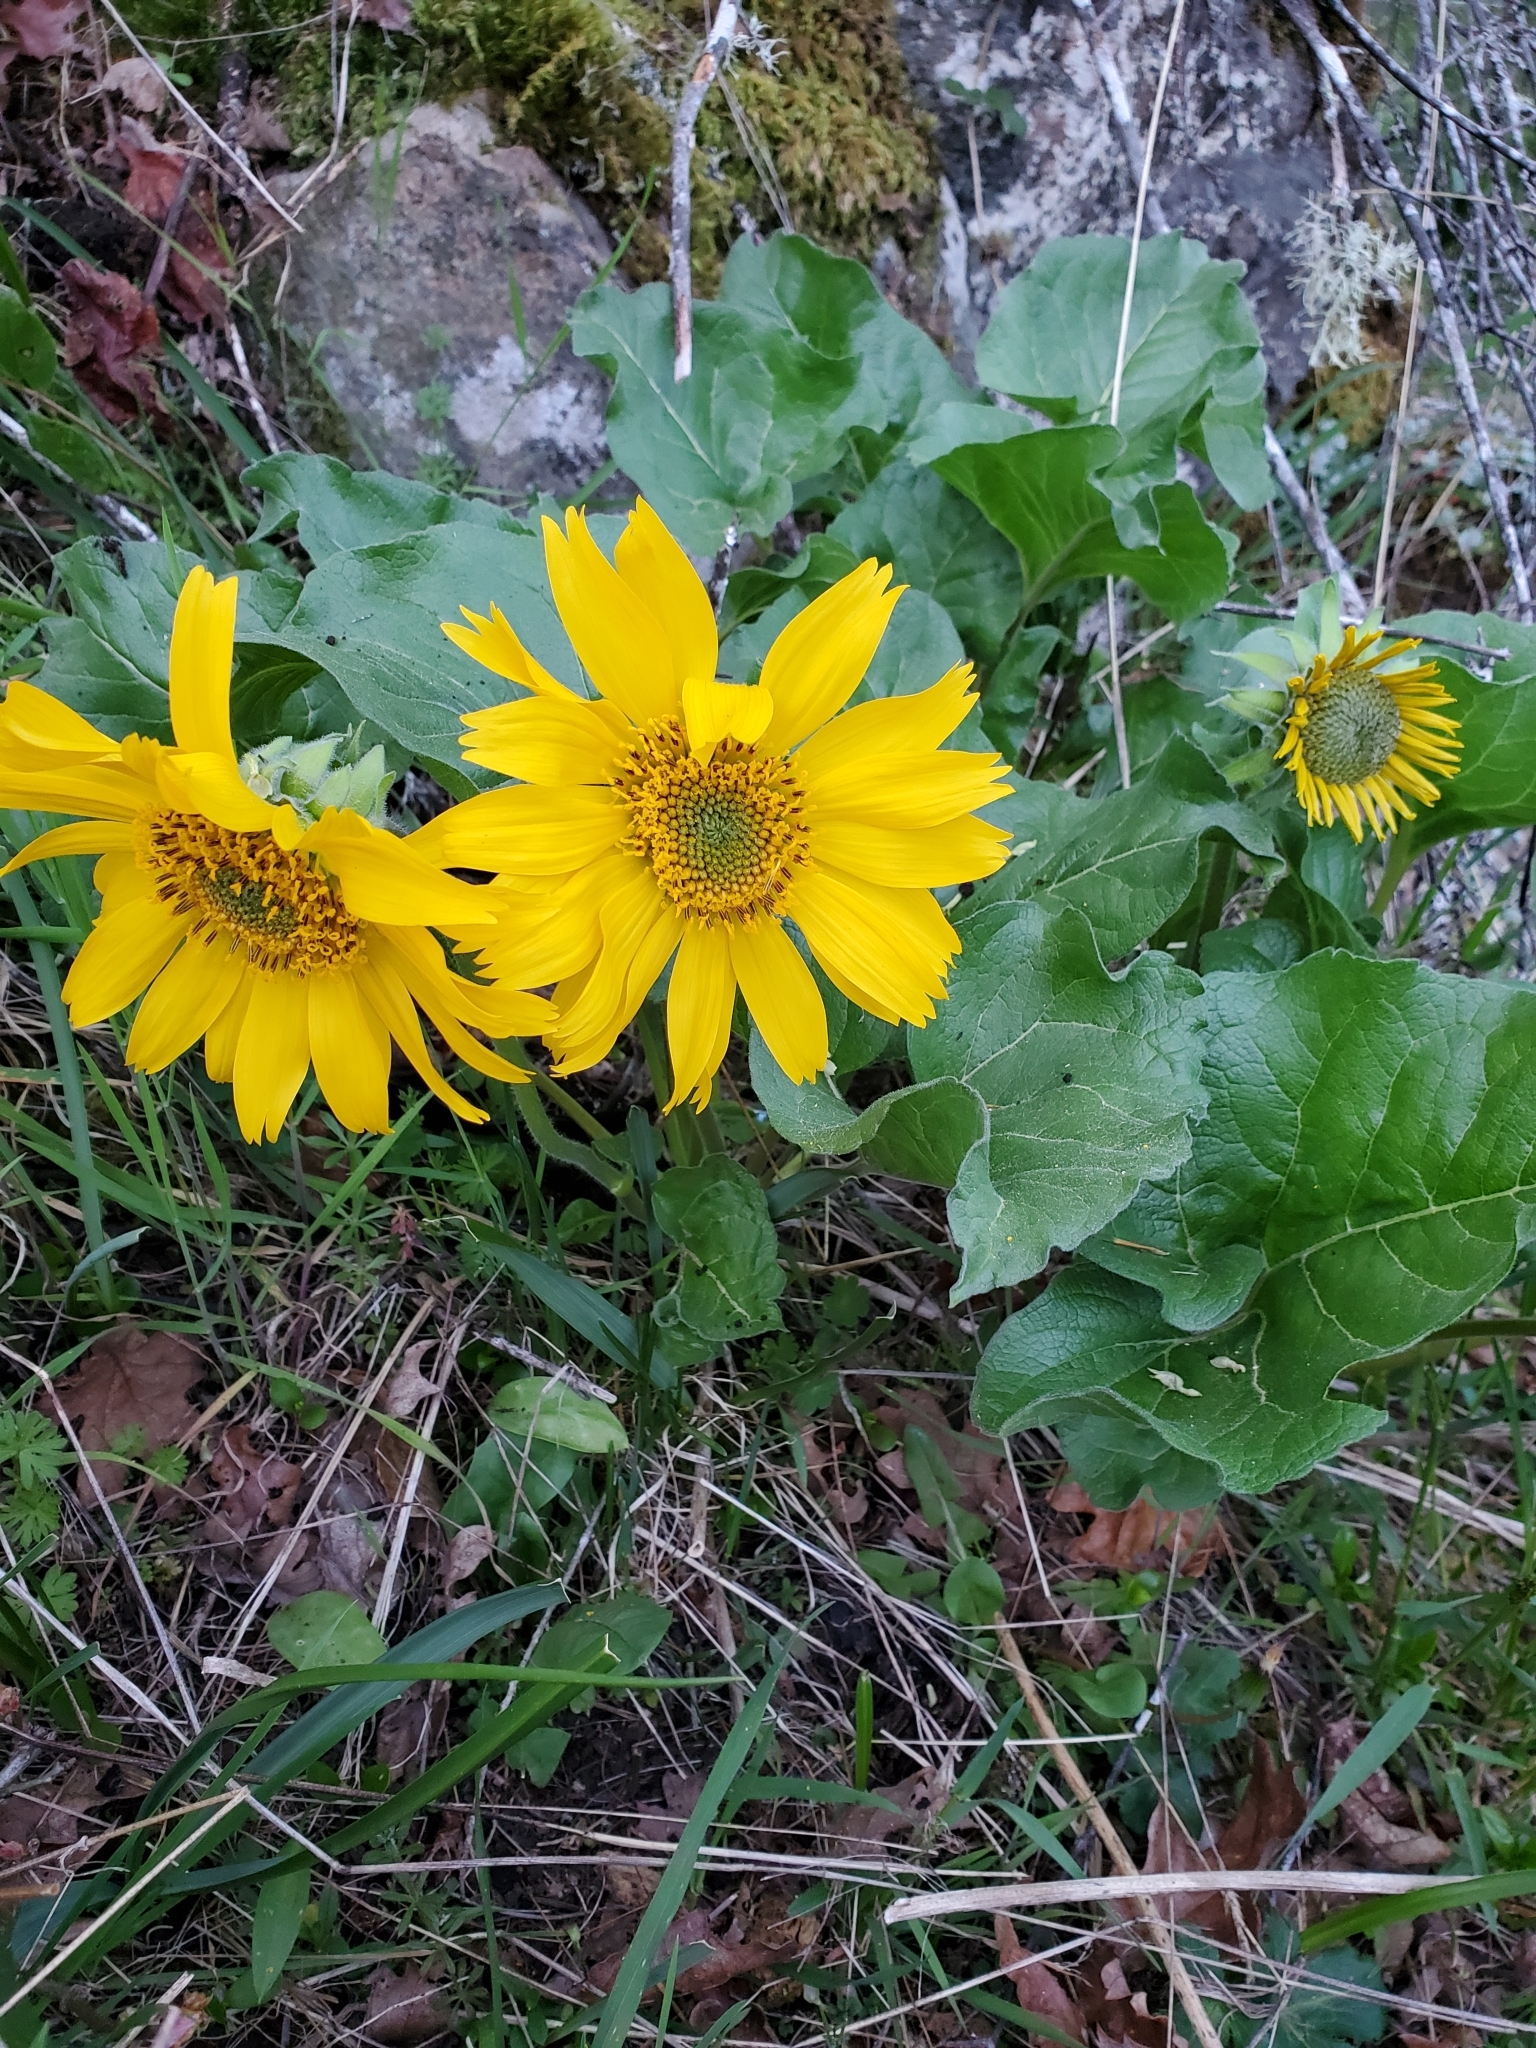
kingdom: Plantae
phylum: Tracheophyta
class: Magnoliopsida
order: Asterales
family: Asteraceae
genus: Balsamorhiza
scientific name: Balsamorhiza deltoidea
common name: Deltoid balsamroot
